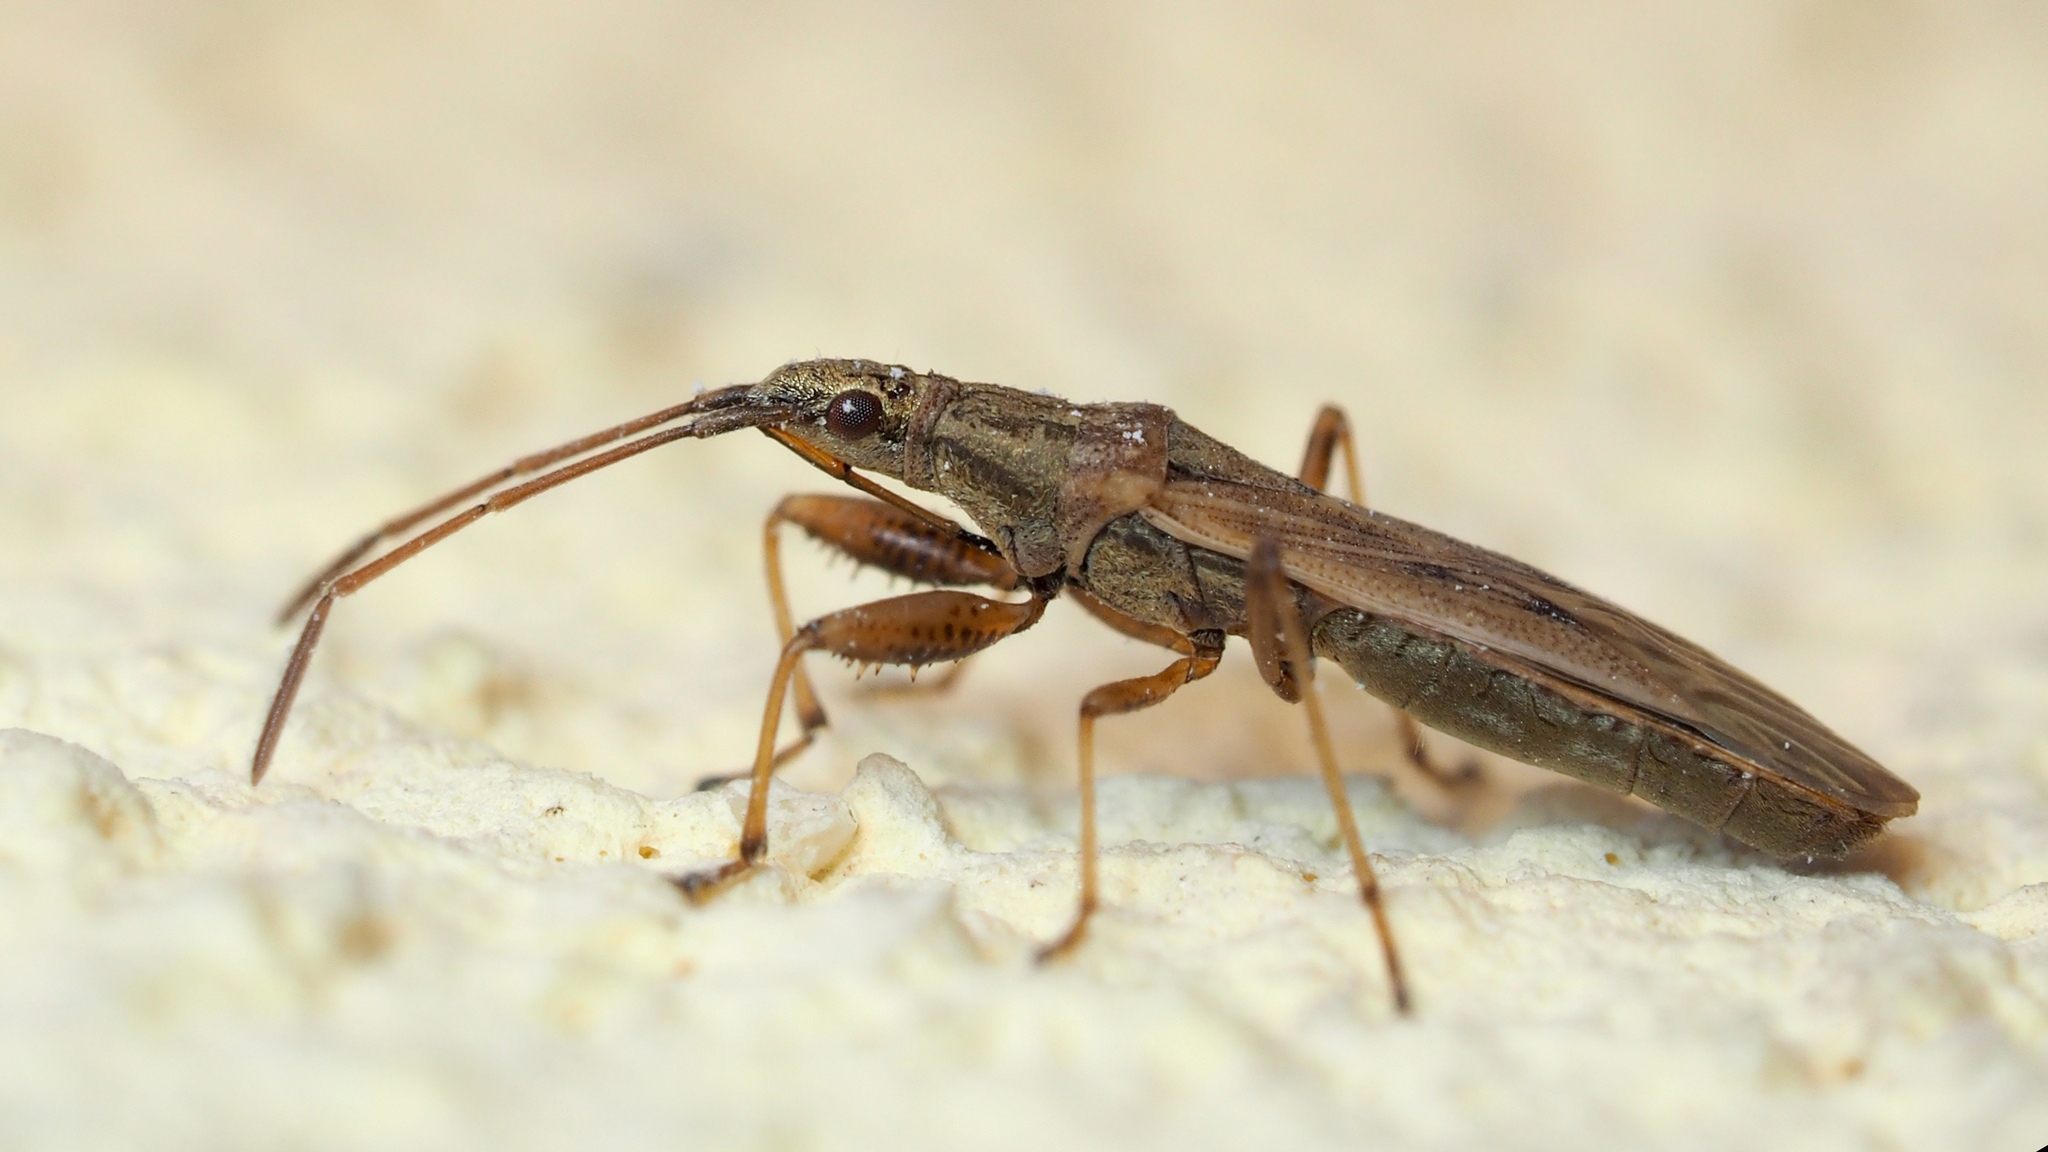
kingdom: Animalia
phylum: Arthropoda
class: Insecta
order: Hemiptera
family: Rhyparochromidae
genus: Paromius
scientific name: Paromius gracilis
